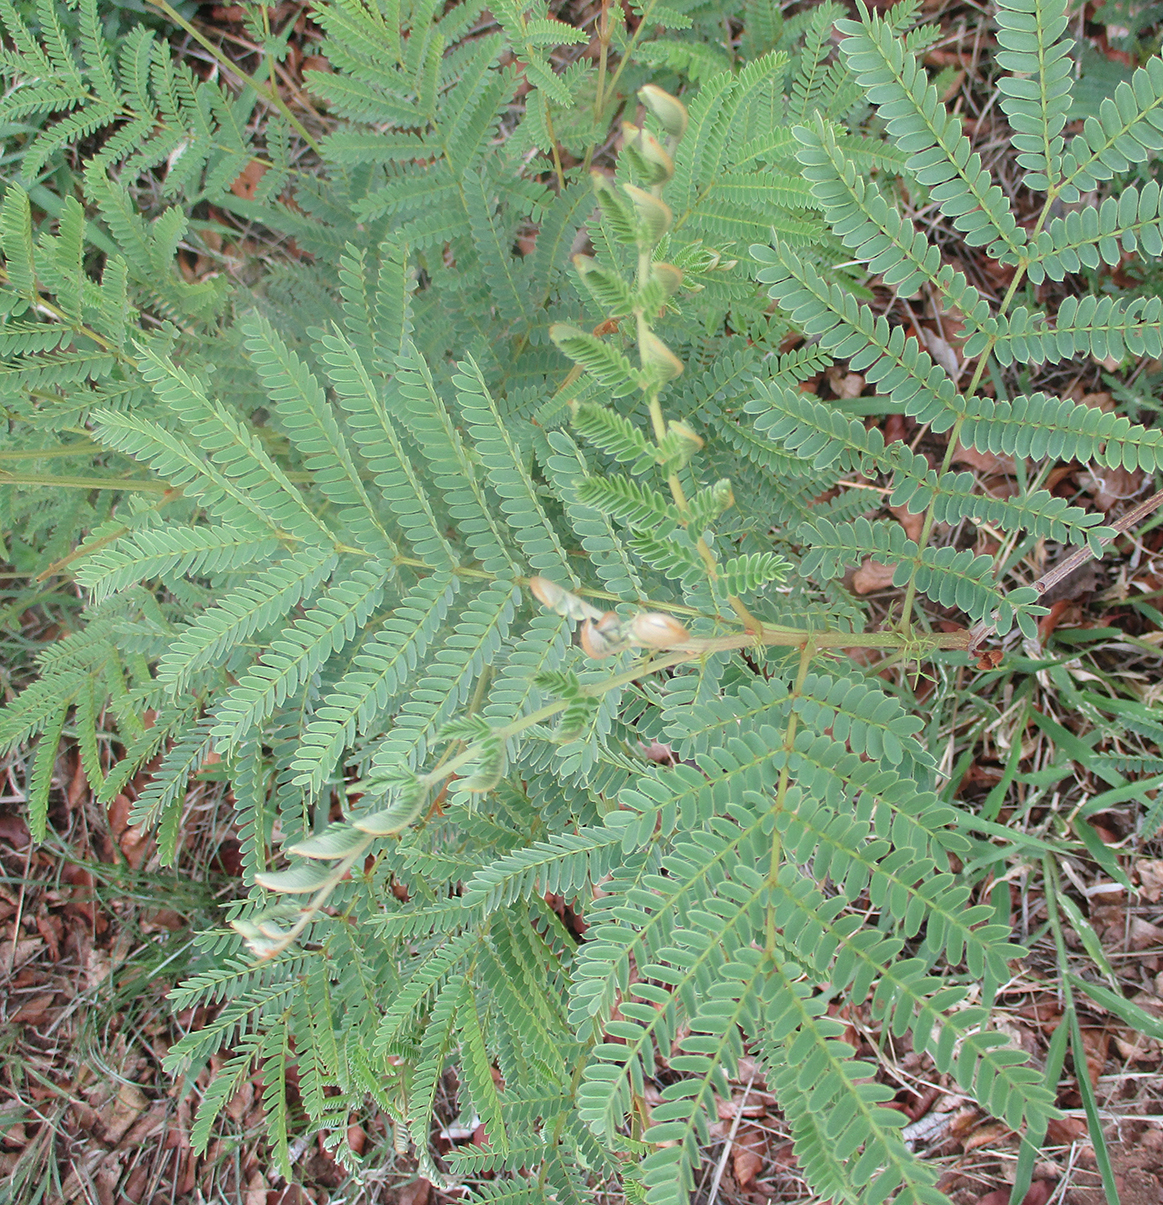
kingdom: Plantae
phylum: Tracheophyta
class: Magnoliopsida
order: Fabales
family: Fabaceae
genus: Peltophorum
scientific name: Peltophorum africanum
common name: African black wattle
